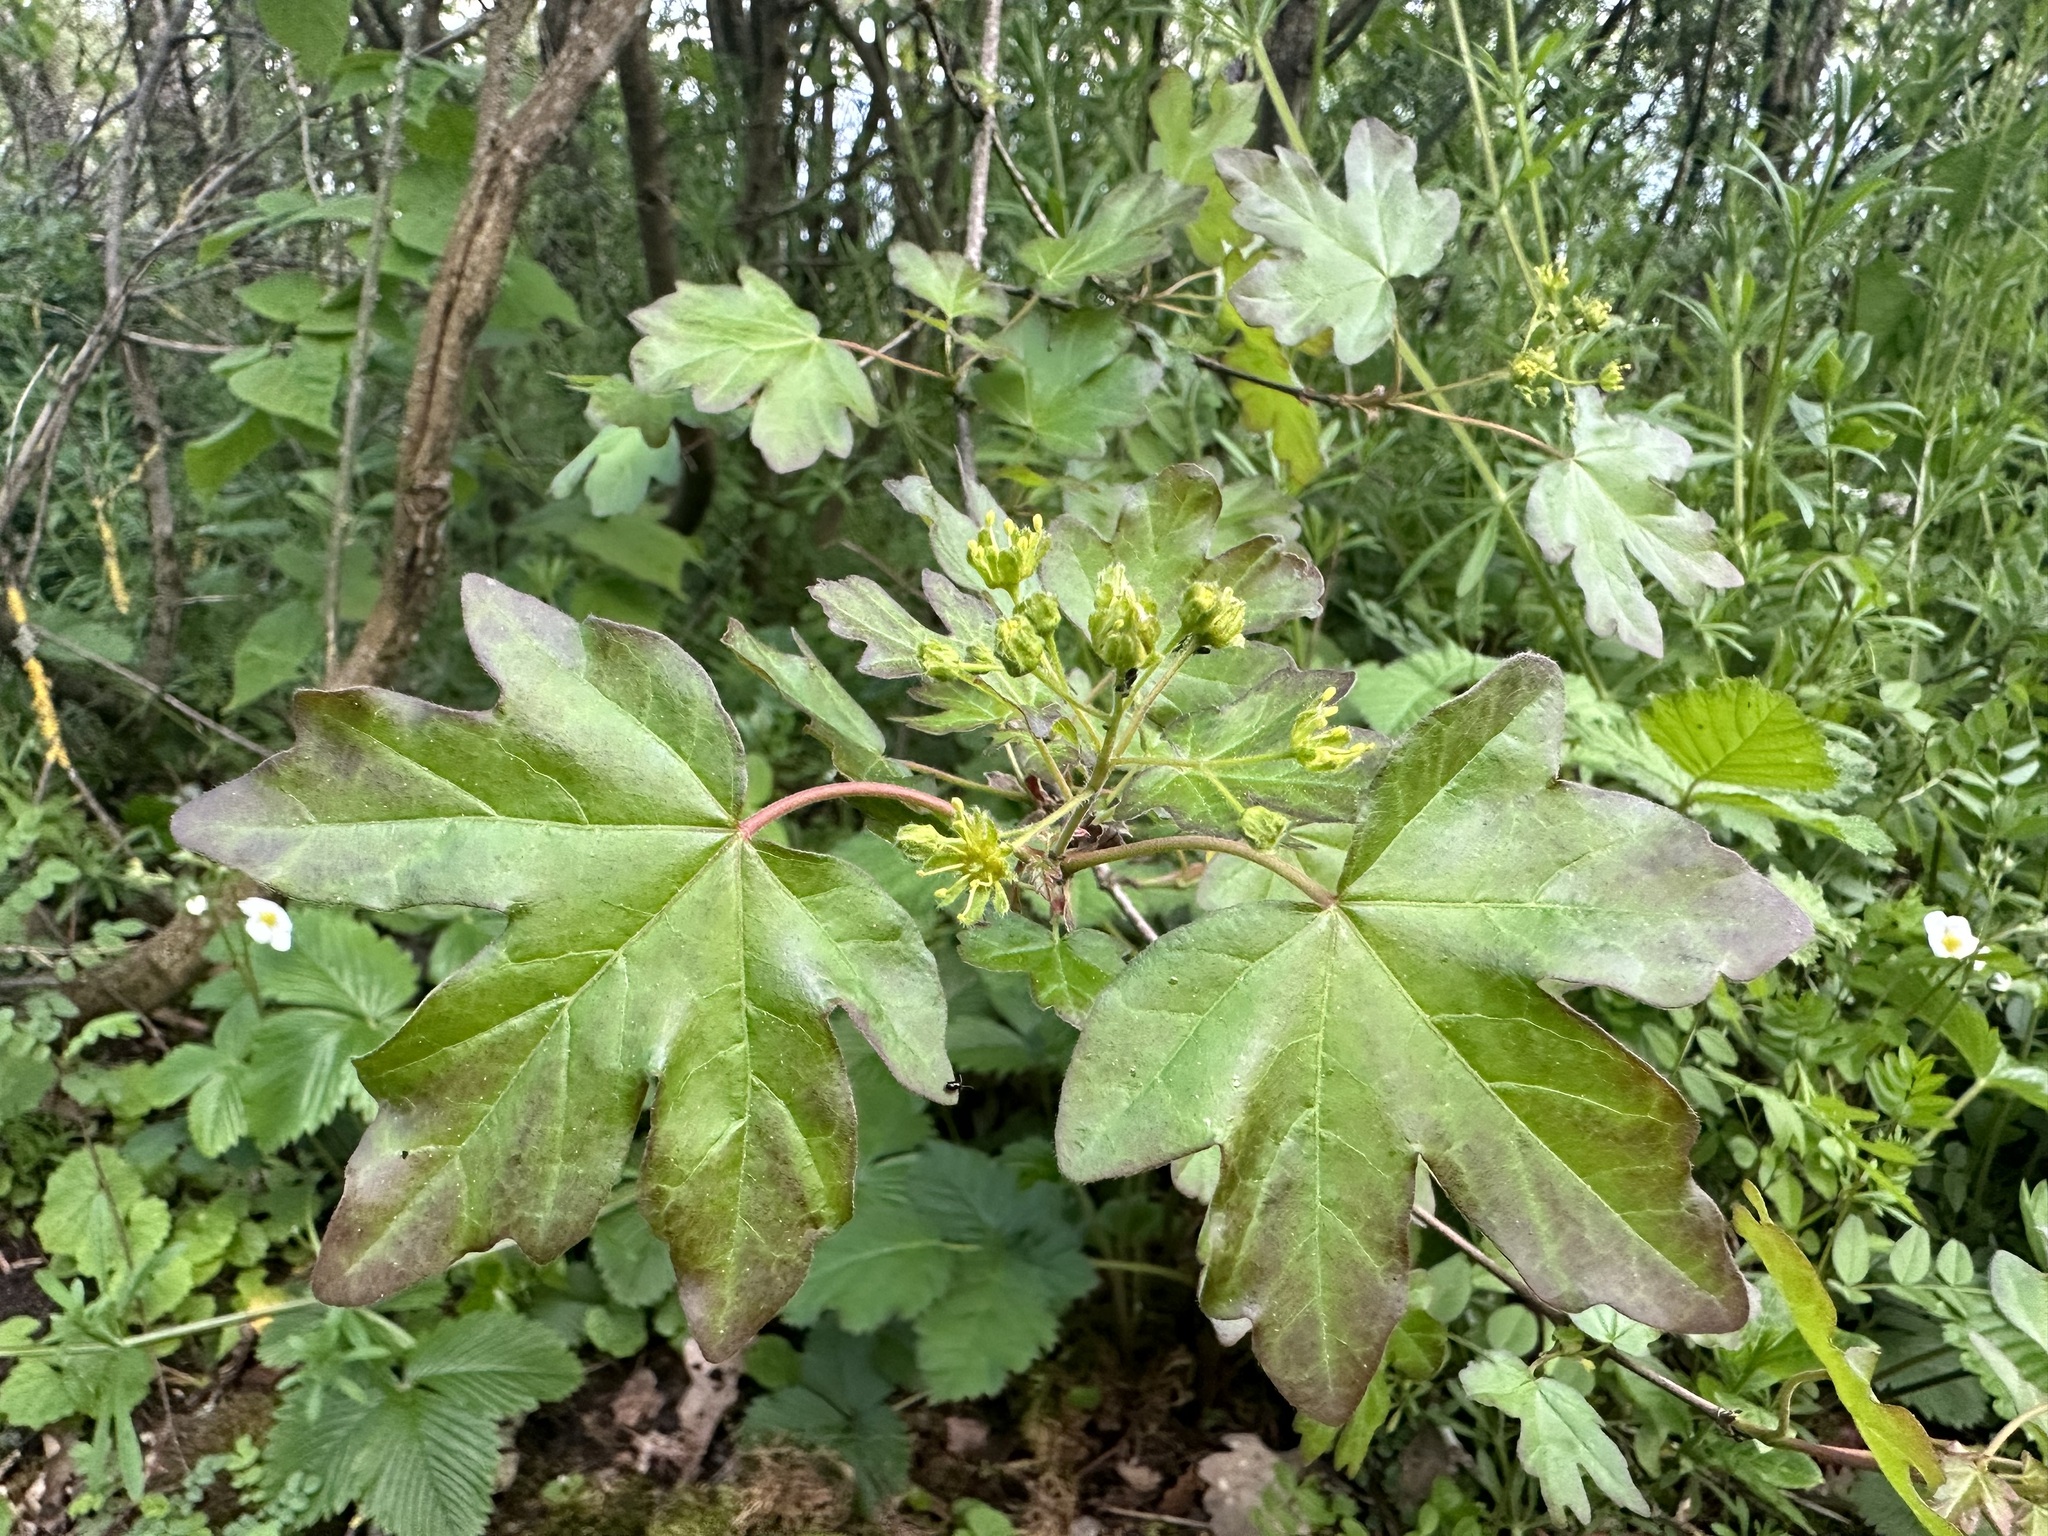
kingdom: Plantae
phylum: Tracheophyta
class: Magnoliopsida
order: Sapindales
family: Sapindaceae
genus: Acer
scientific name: Acer campestre
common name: Field maple
